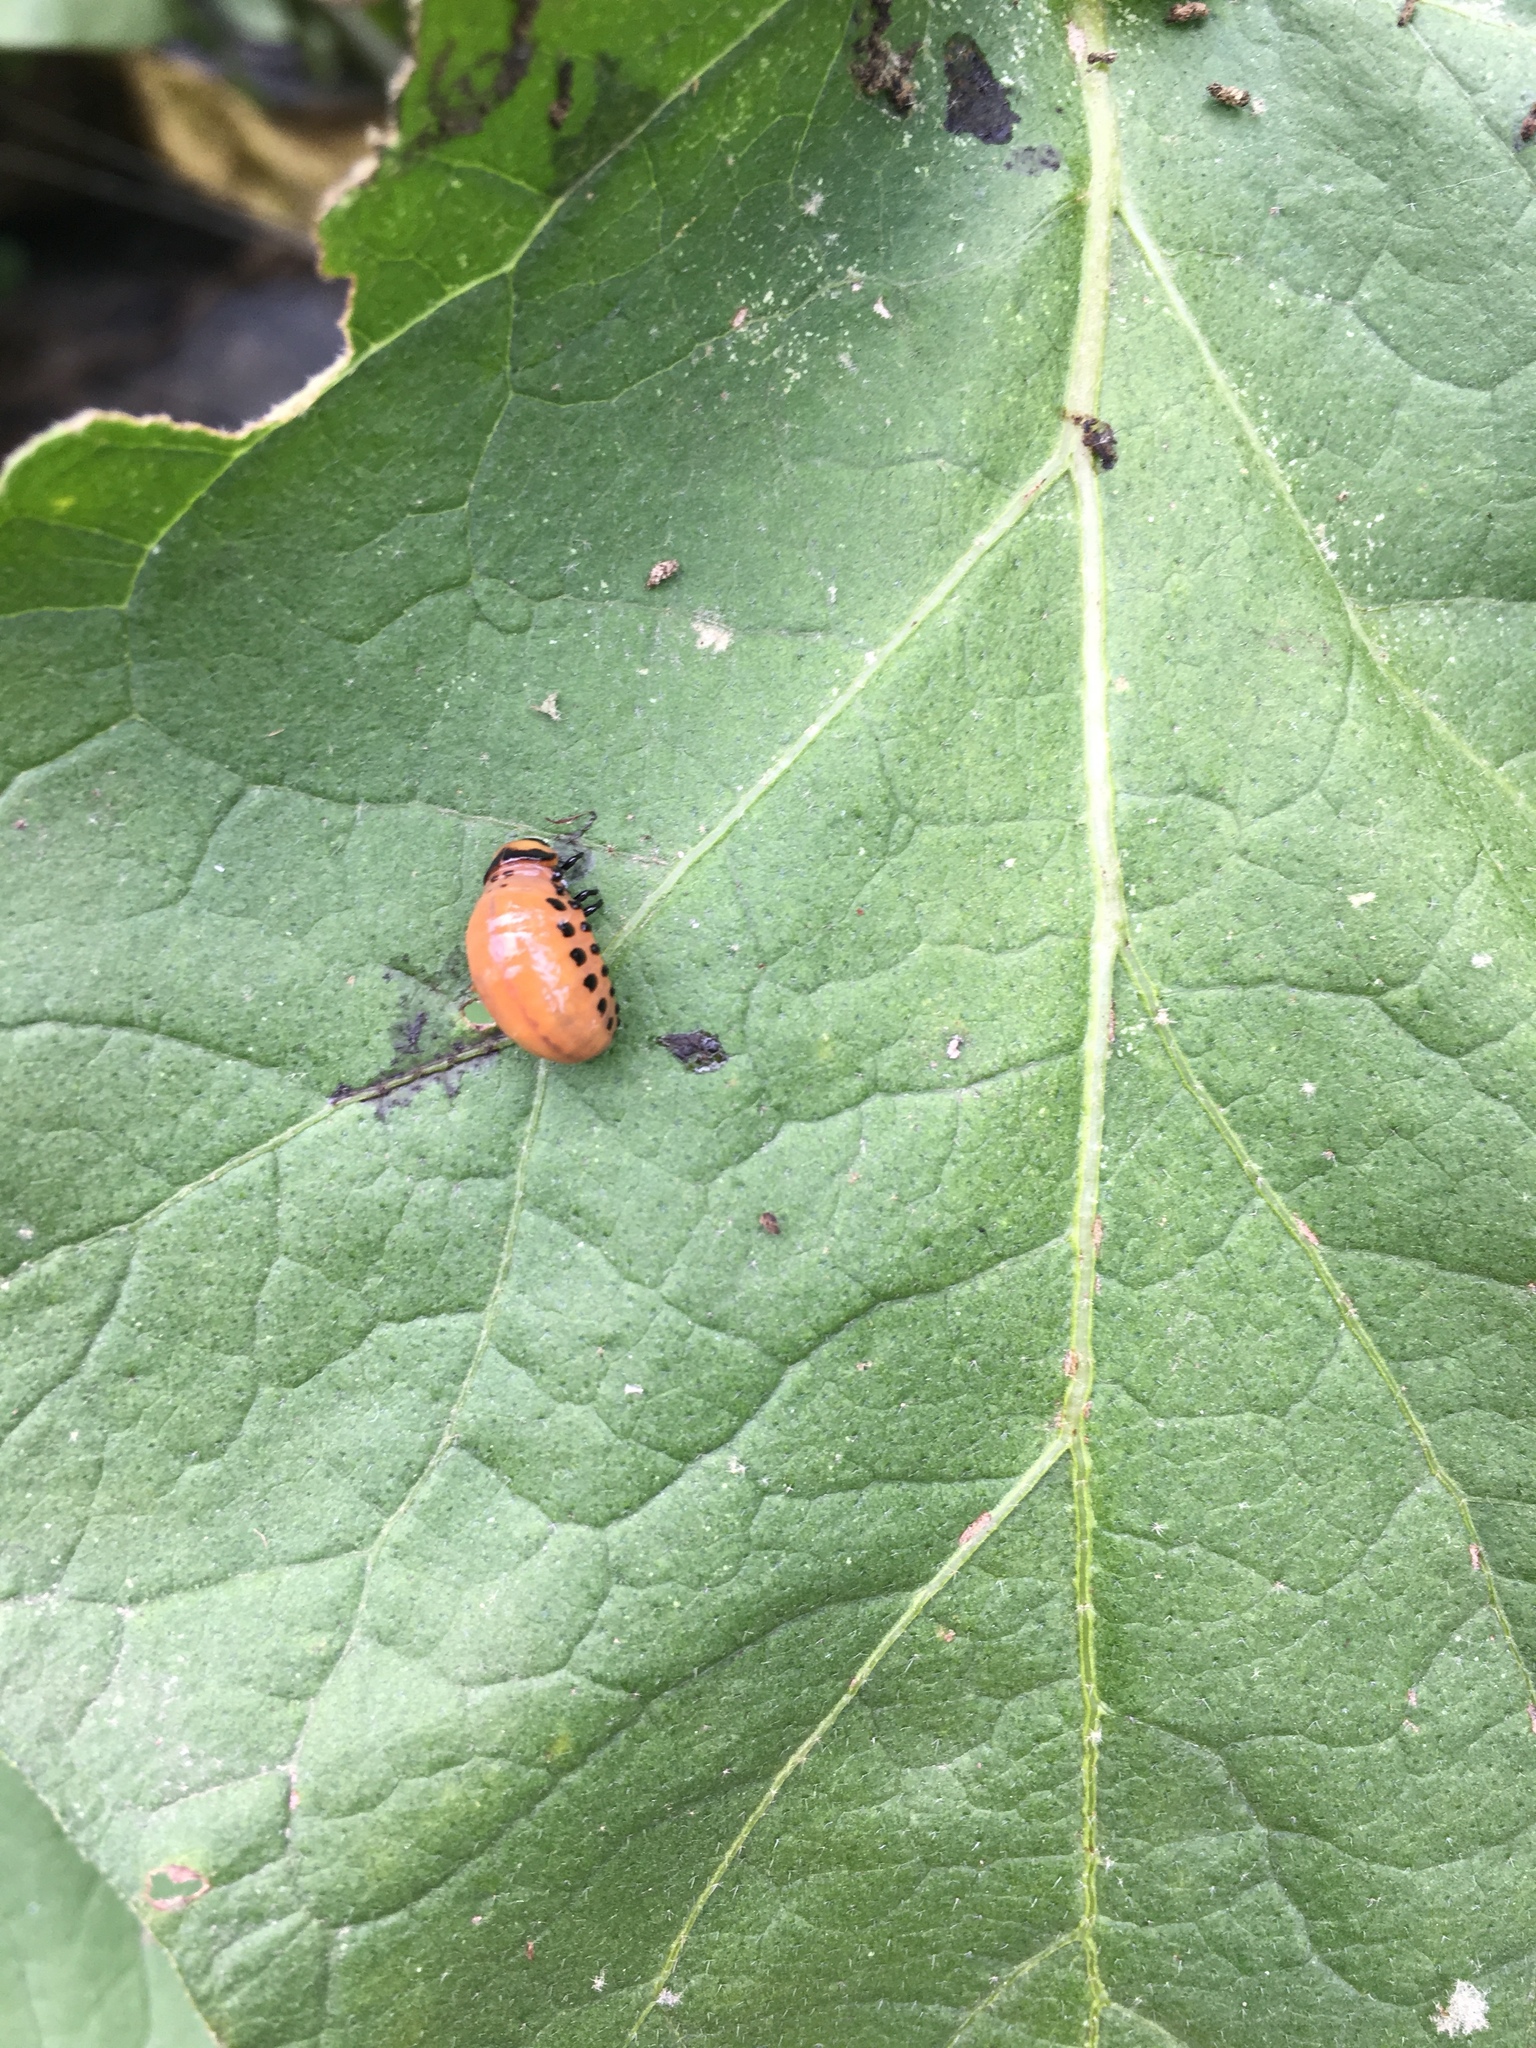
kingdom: Animalia
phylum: Arthropoda
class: Insecta
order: Coleoptera
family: Chrysomelidae
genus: Leptinotarsa
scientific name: Leptinotarsa decemlineata
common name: Colorado potato beetle
